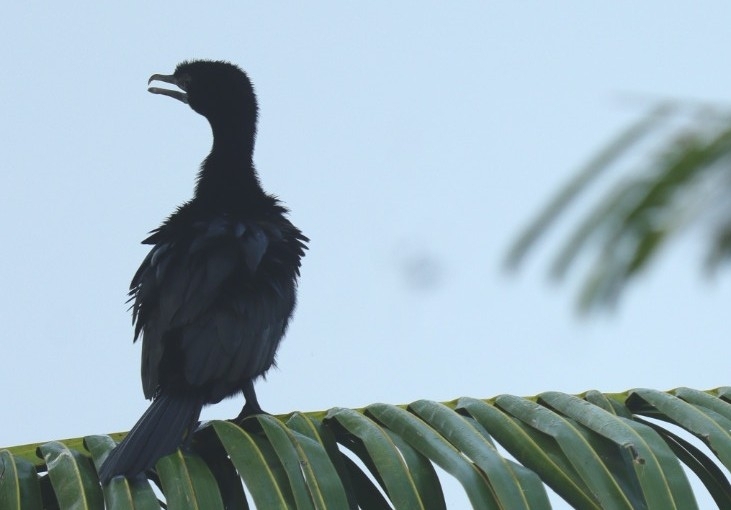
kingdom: Animalia
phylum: Chordata
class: Aves
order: Suliformes
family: Phalacrocoracidae
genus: Microcarbo
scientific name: Microcarbo niger
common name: Little cormorant
